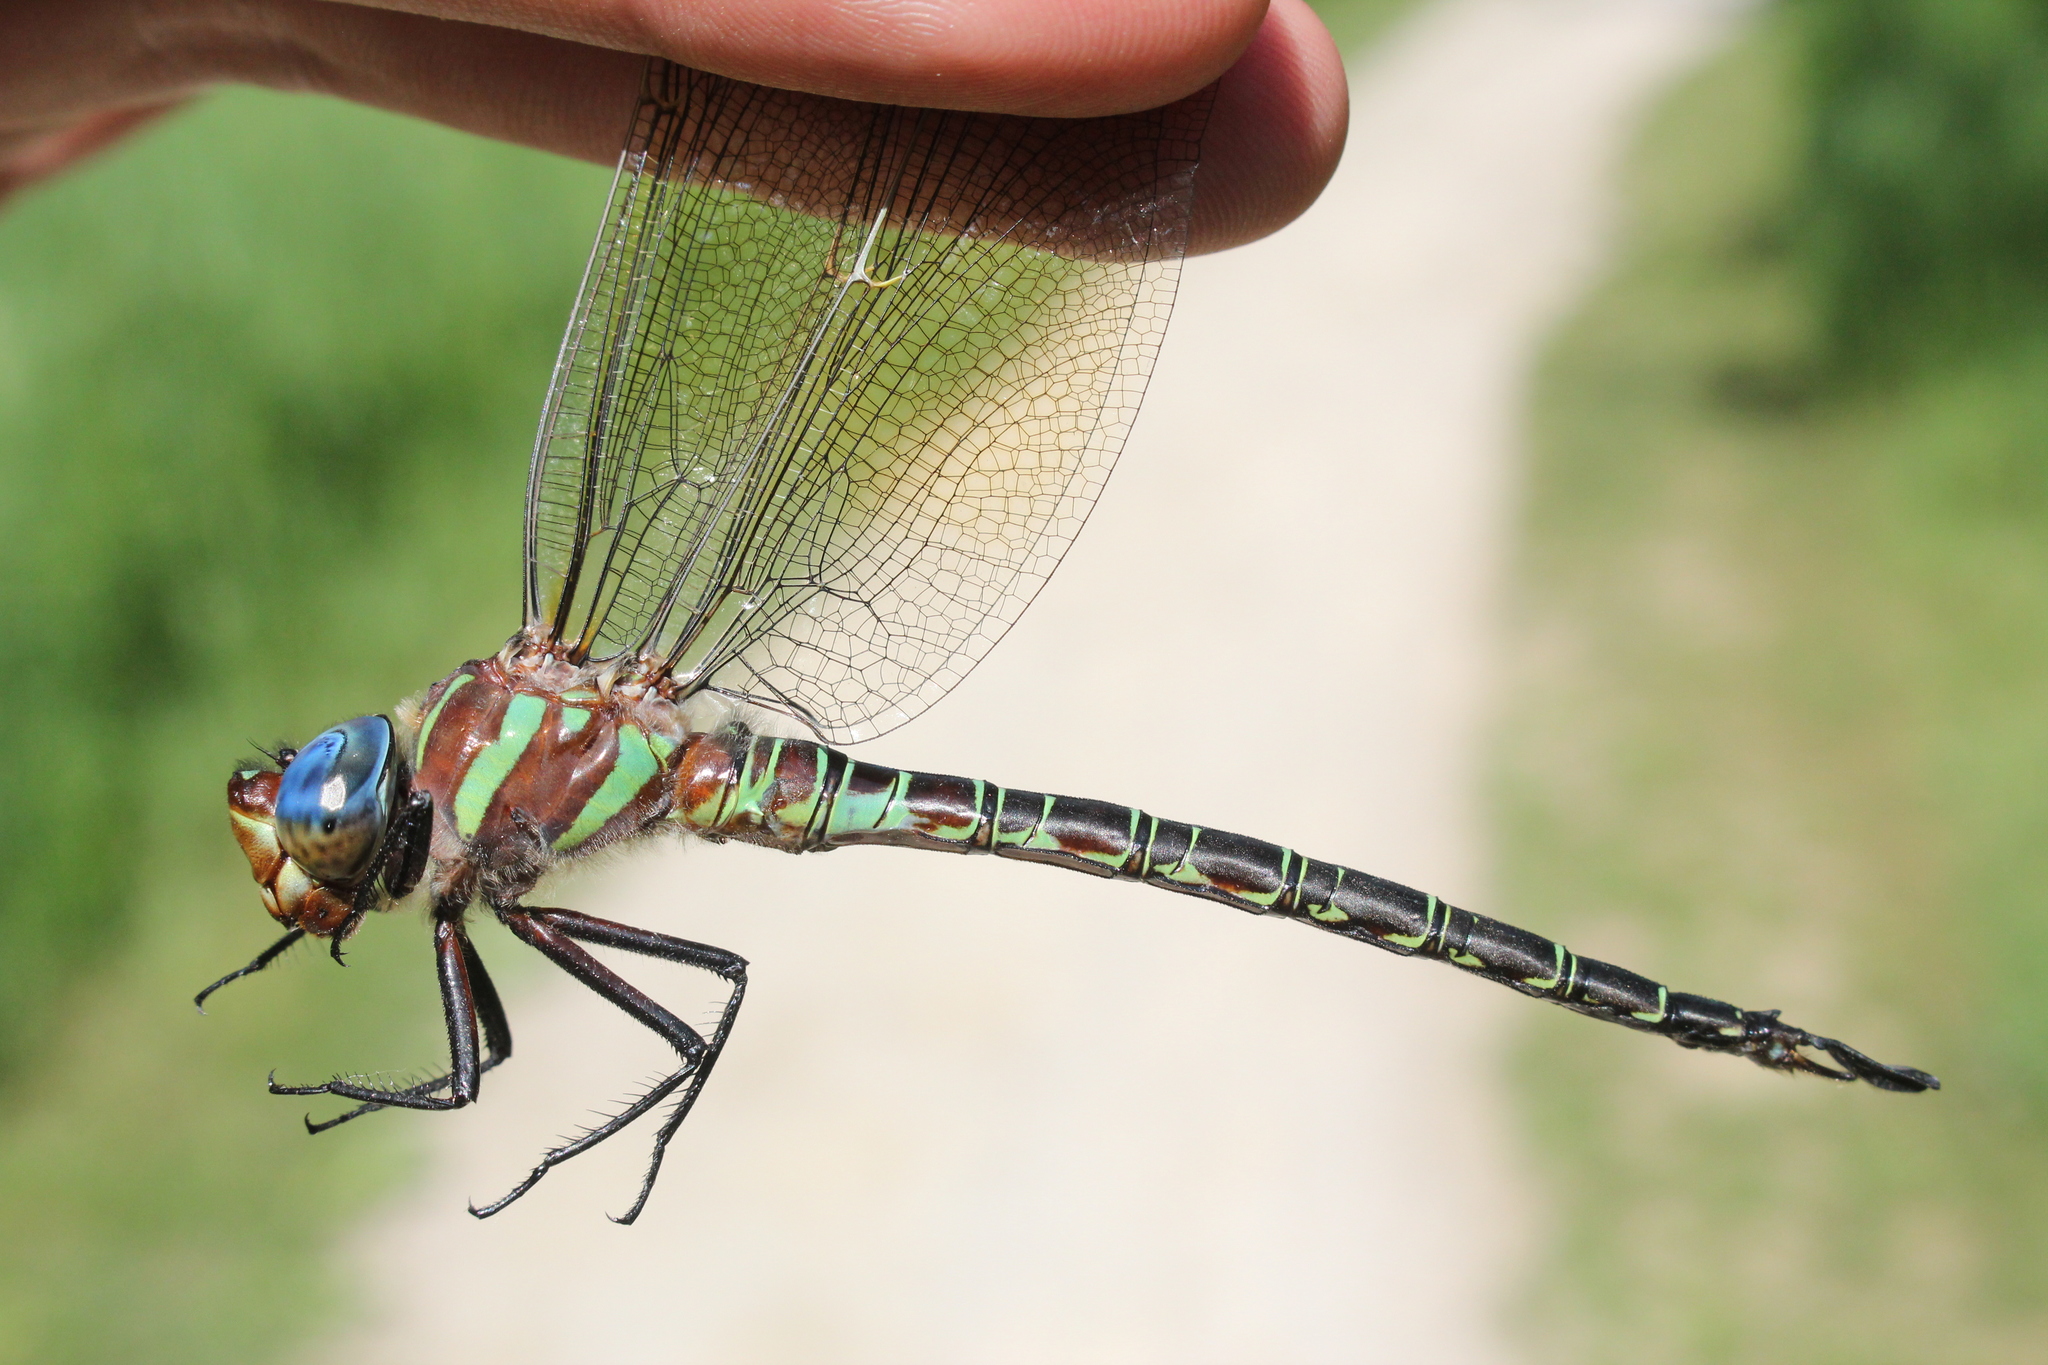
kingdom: Animalia
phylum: Arthropoda
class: Insecta
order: Odonata
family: Aeshnidae
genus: Epiaeschna
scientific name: Epiaeschna heros
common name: Swamp darner
